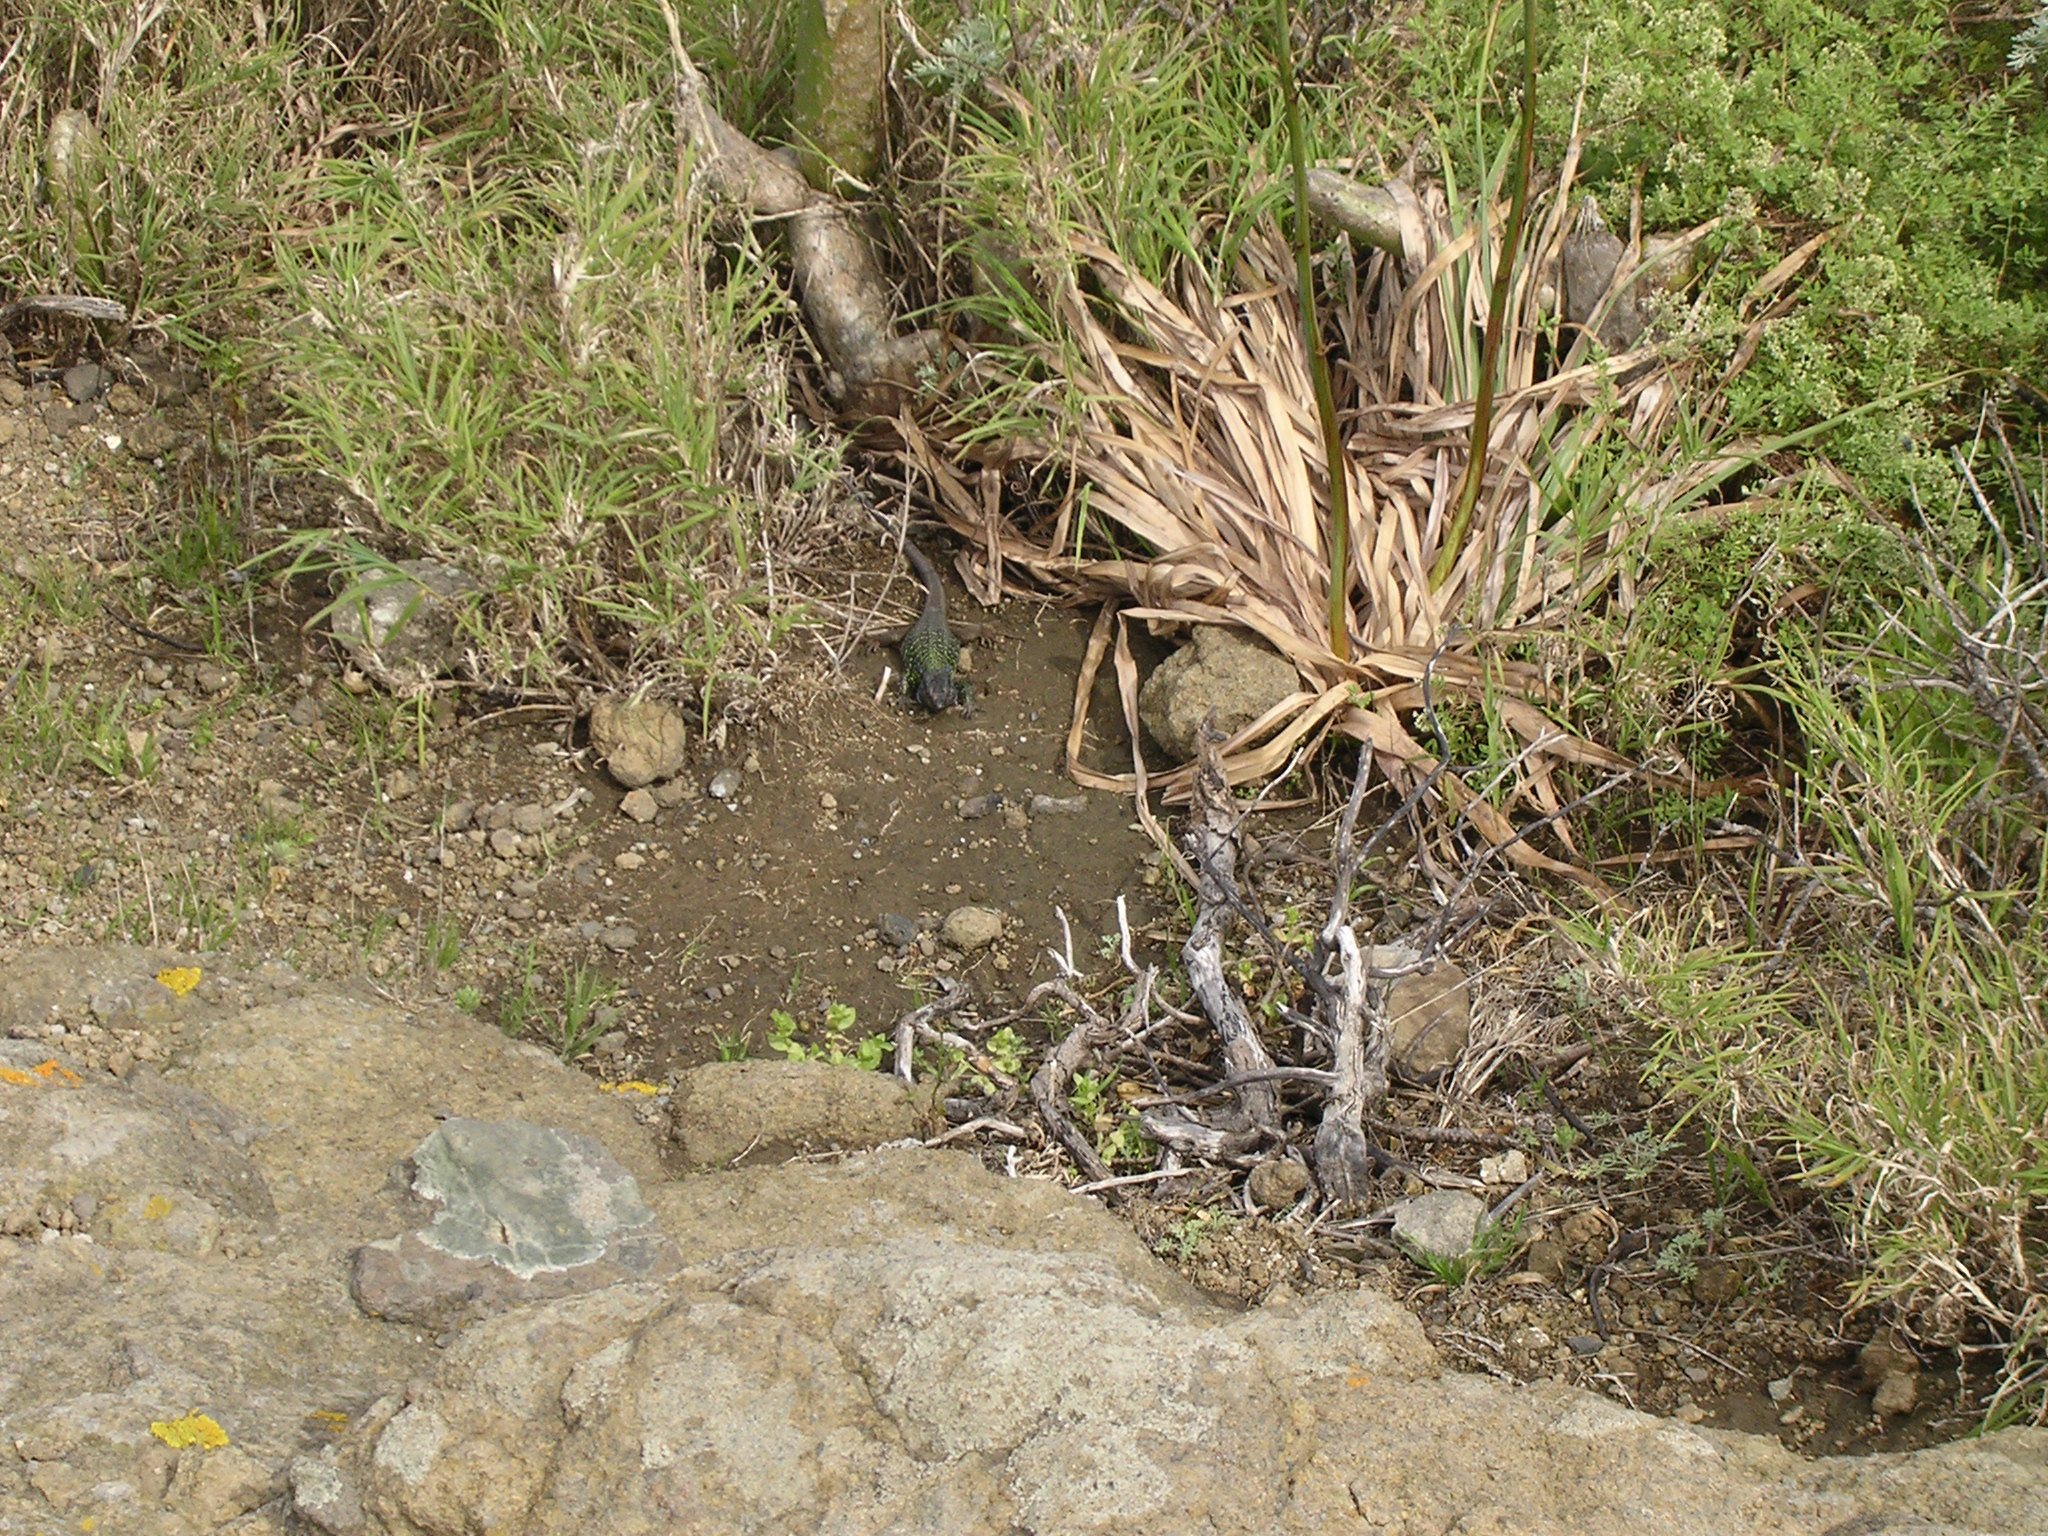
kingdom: Animalia
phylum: Chordata
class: Squamata
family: Lacertidae
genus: Gallotia
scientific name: Gallotia galloti
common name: Gallot's lizard
